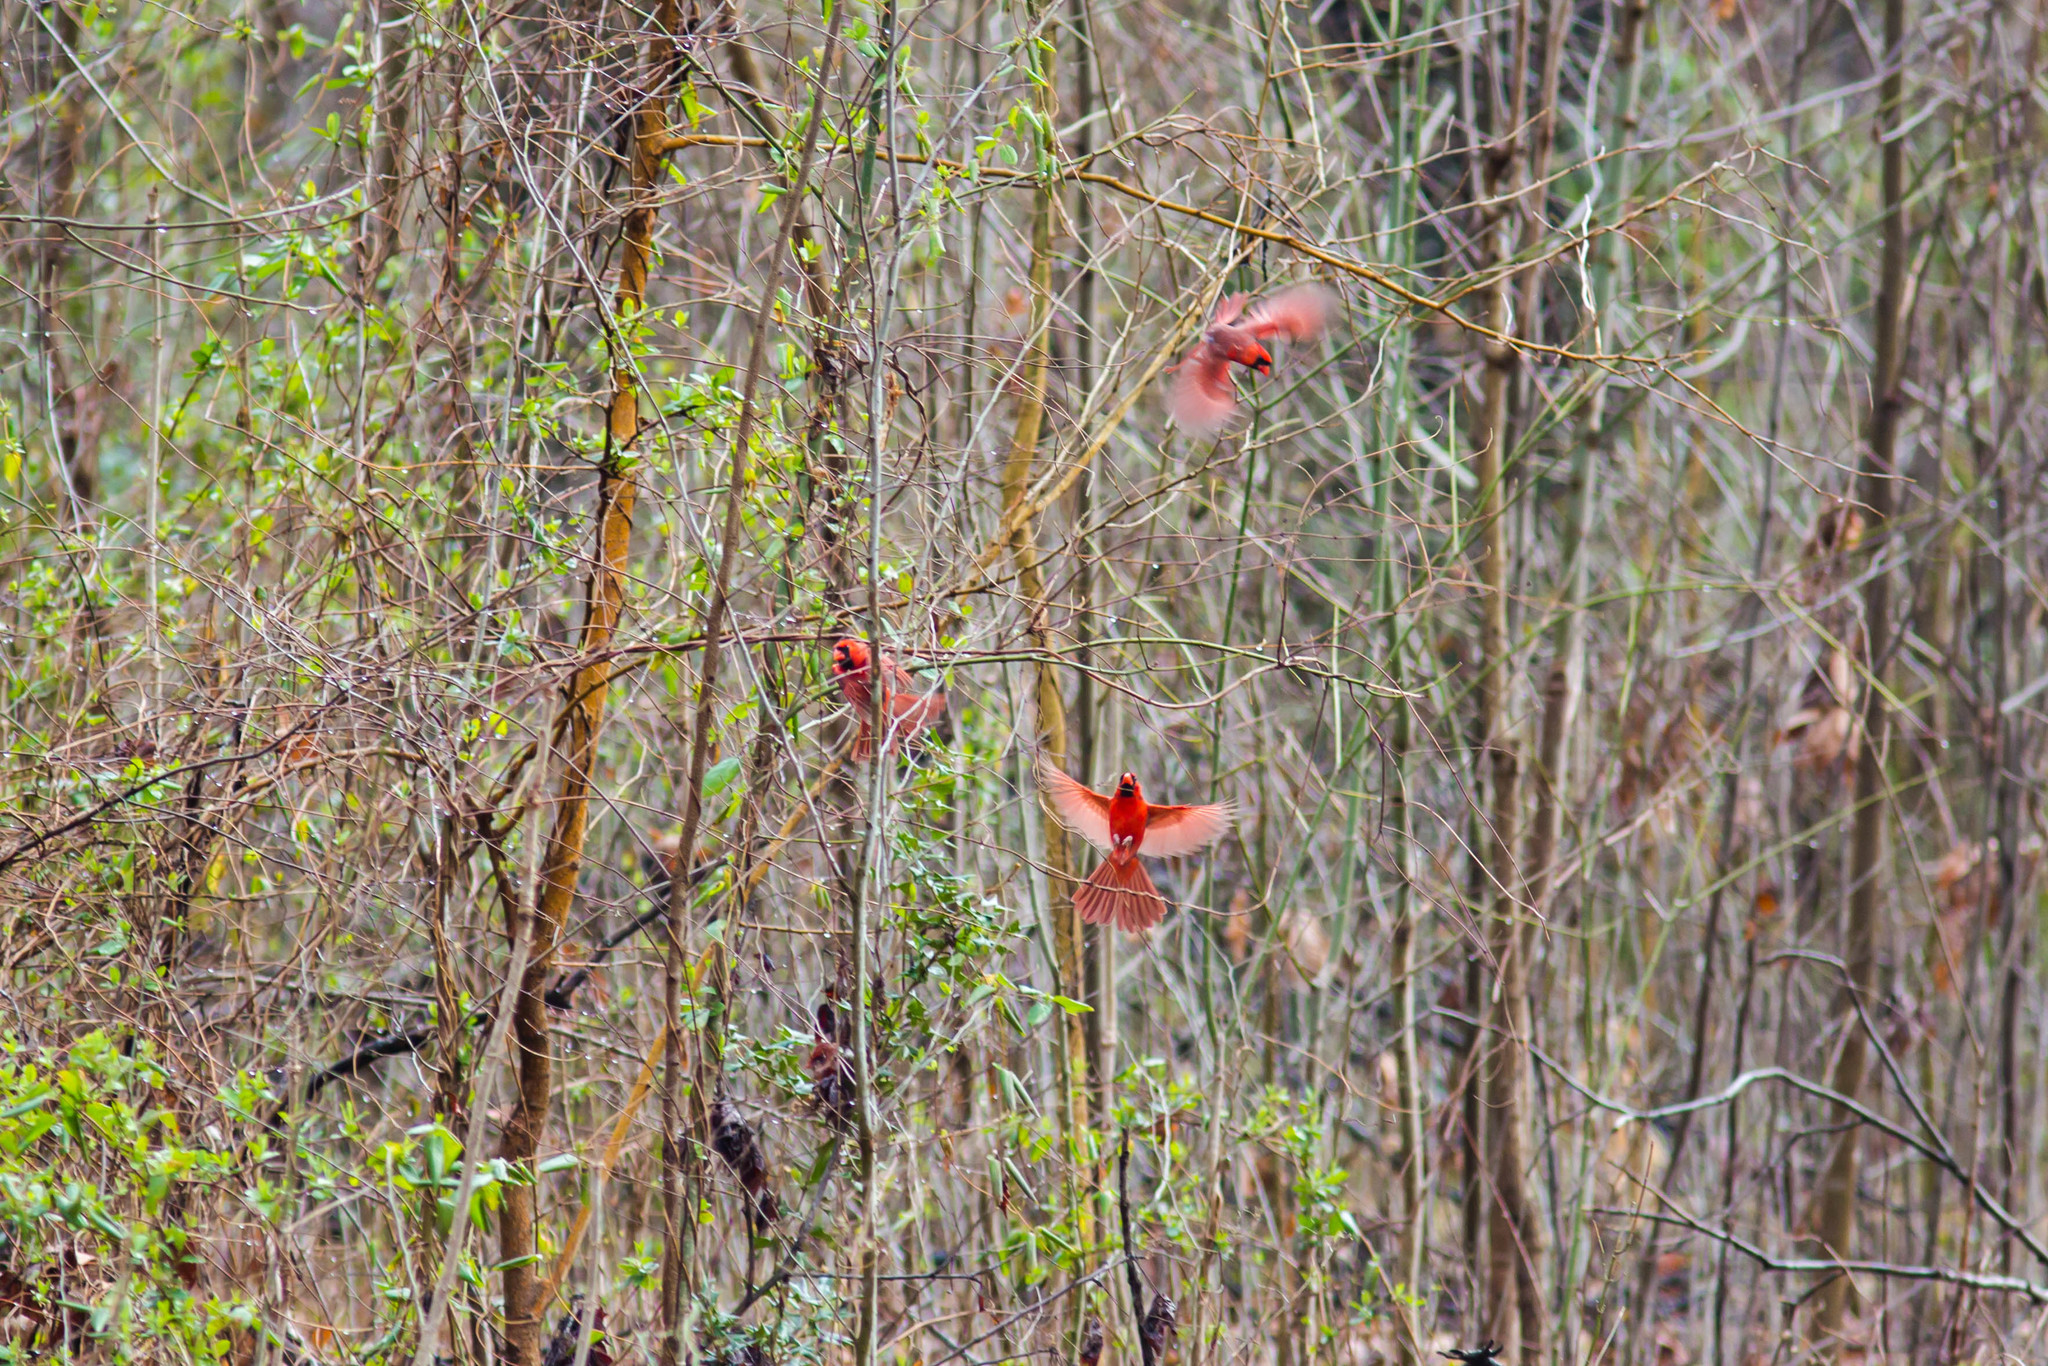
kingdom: Animalia
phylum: Chordata
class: Aves
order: Passeriformes
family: Cardinalidae
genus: Cardinalis
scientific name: Cardinalis cardinalis
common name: Northern cardinal
